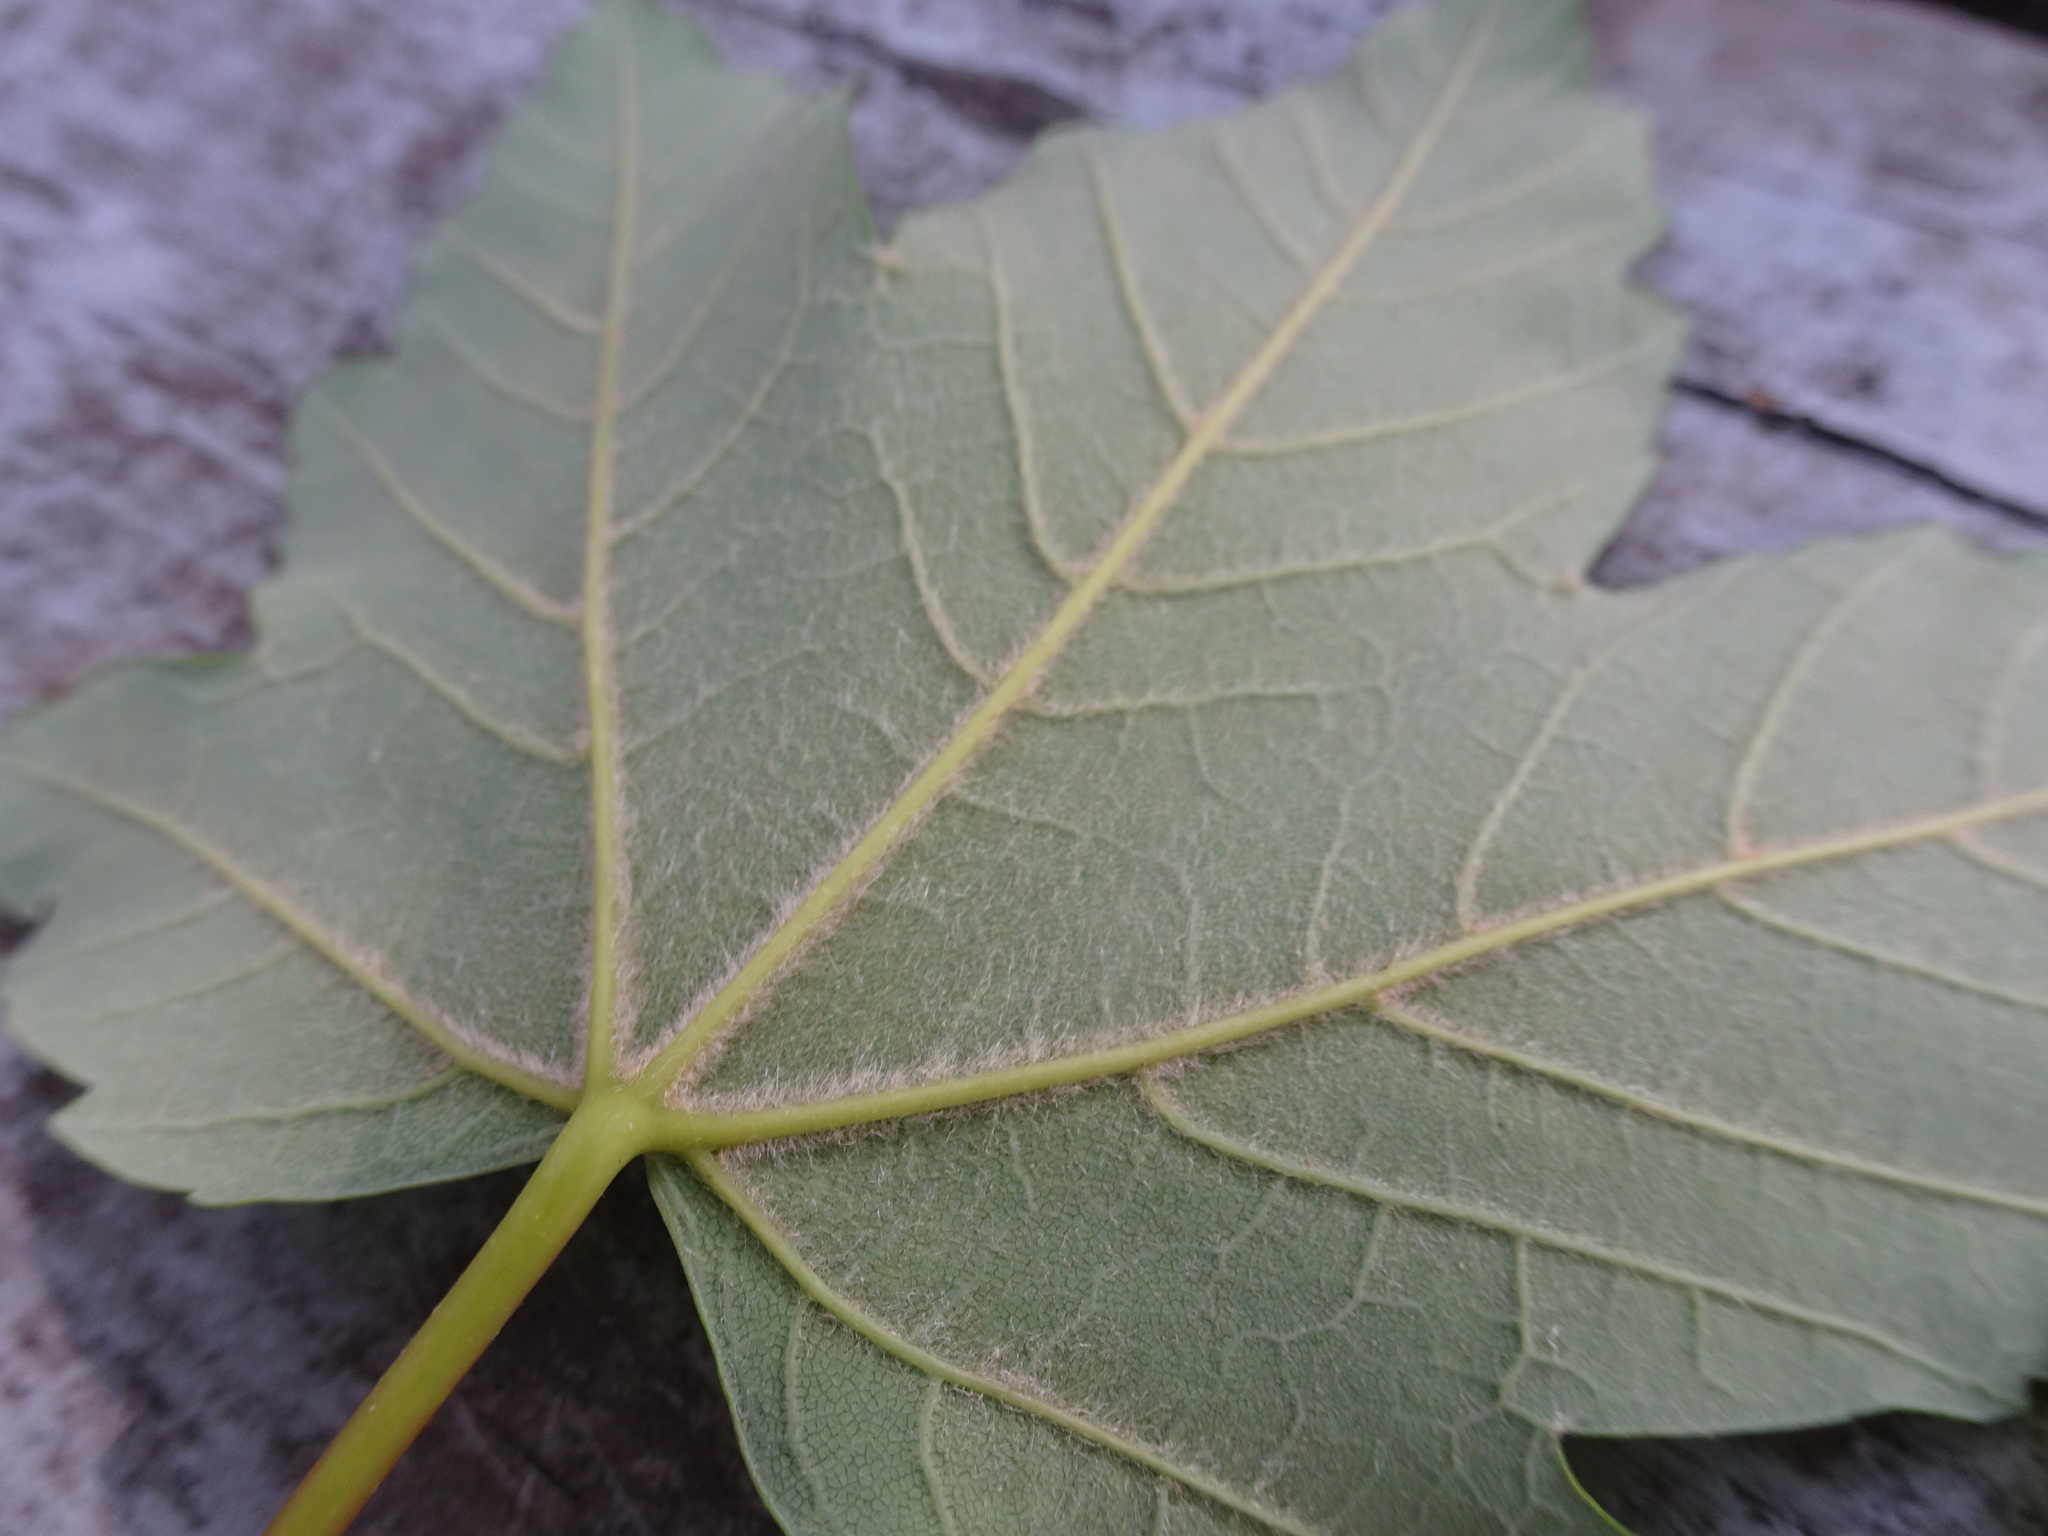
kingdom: Plantae
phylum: Tracheophyta
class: Magnoliopsida
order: Sapindales
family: Sapindaceae
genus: Acer
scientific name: Acer pseudoplatanus
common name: Sycamore
